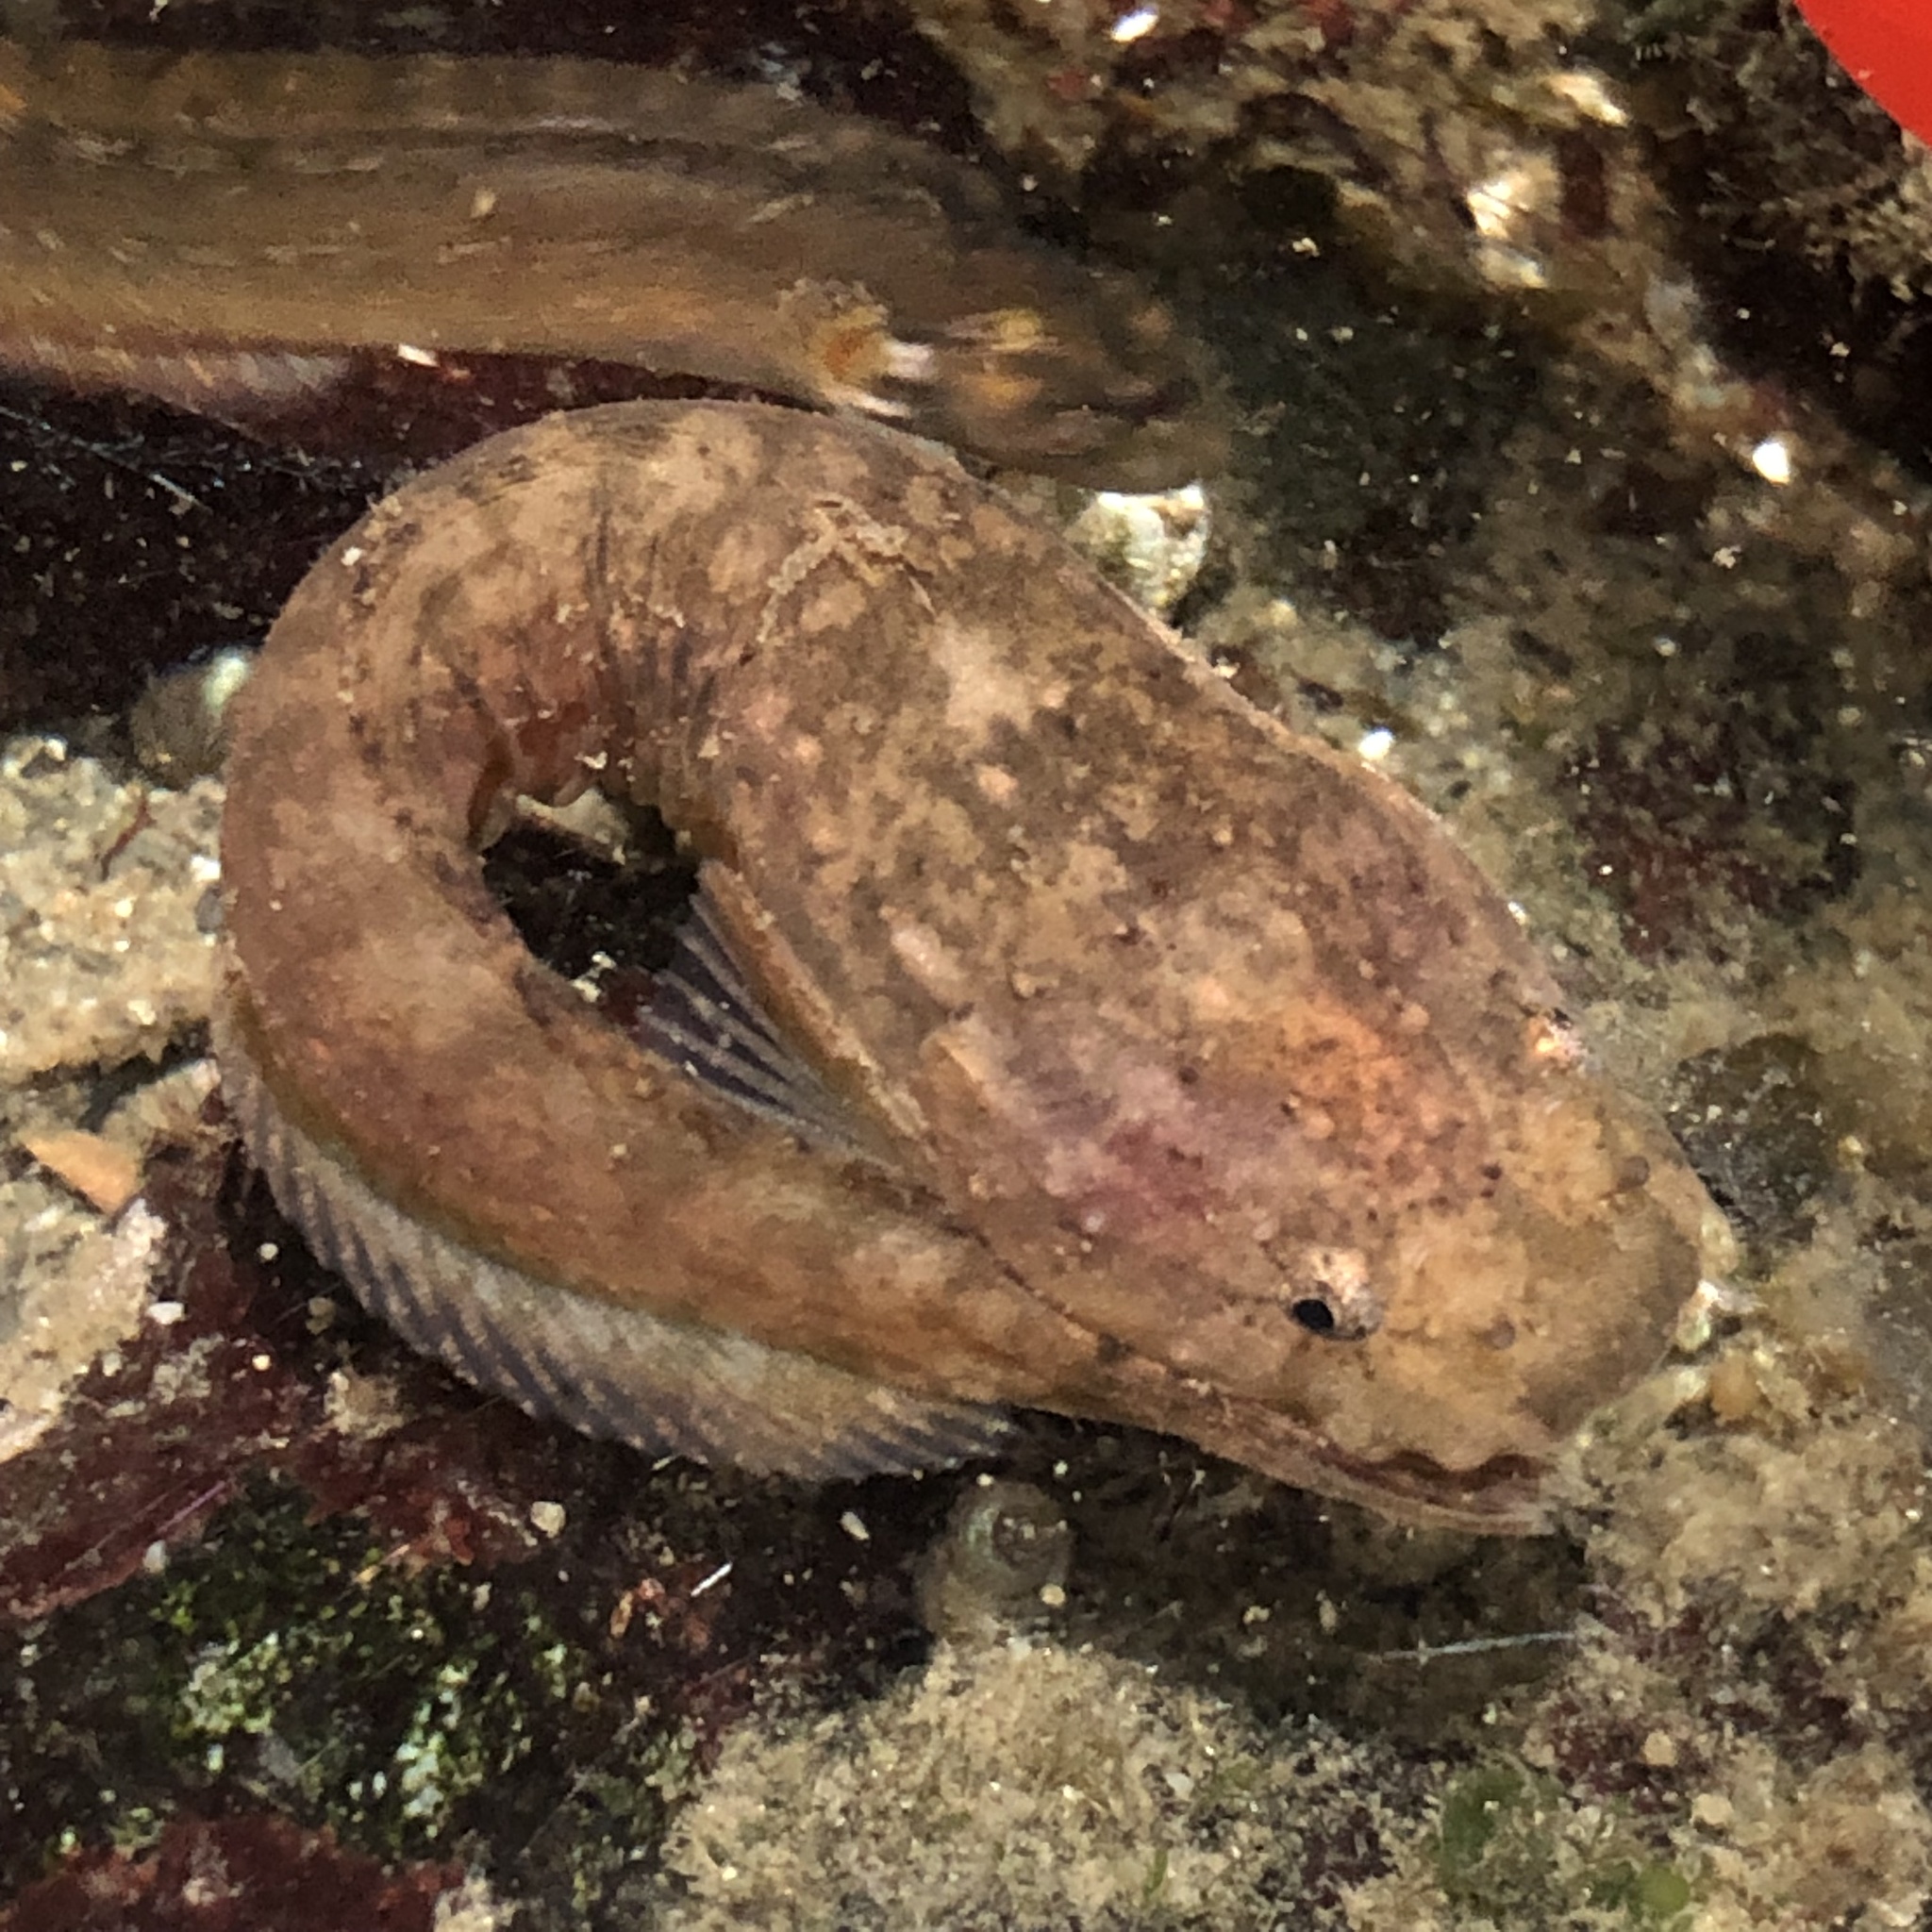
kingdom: Animalia
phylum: Chordata
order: Scorpaeniformes
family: Liparidae
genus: Liparis
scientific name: Liparis callyodon
